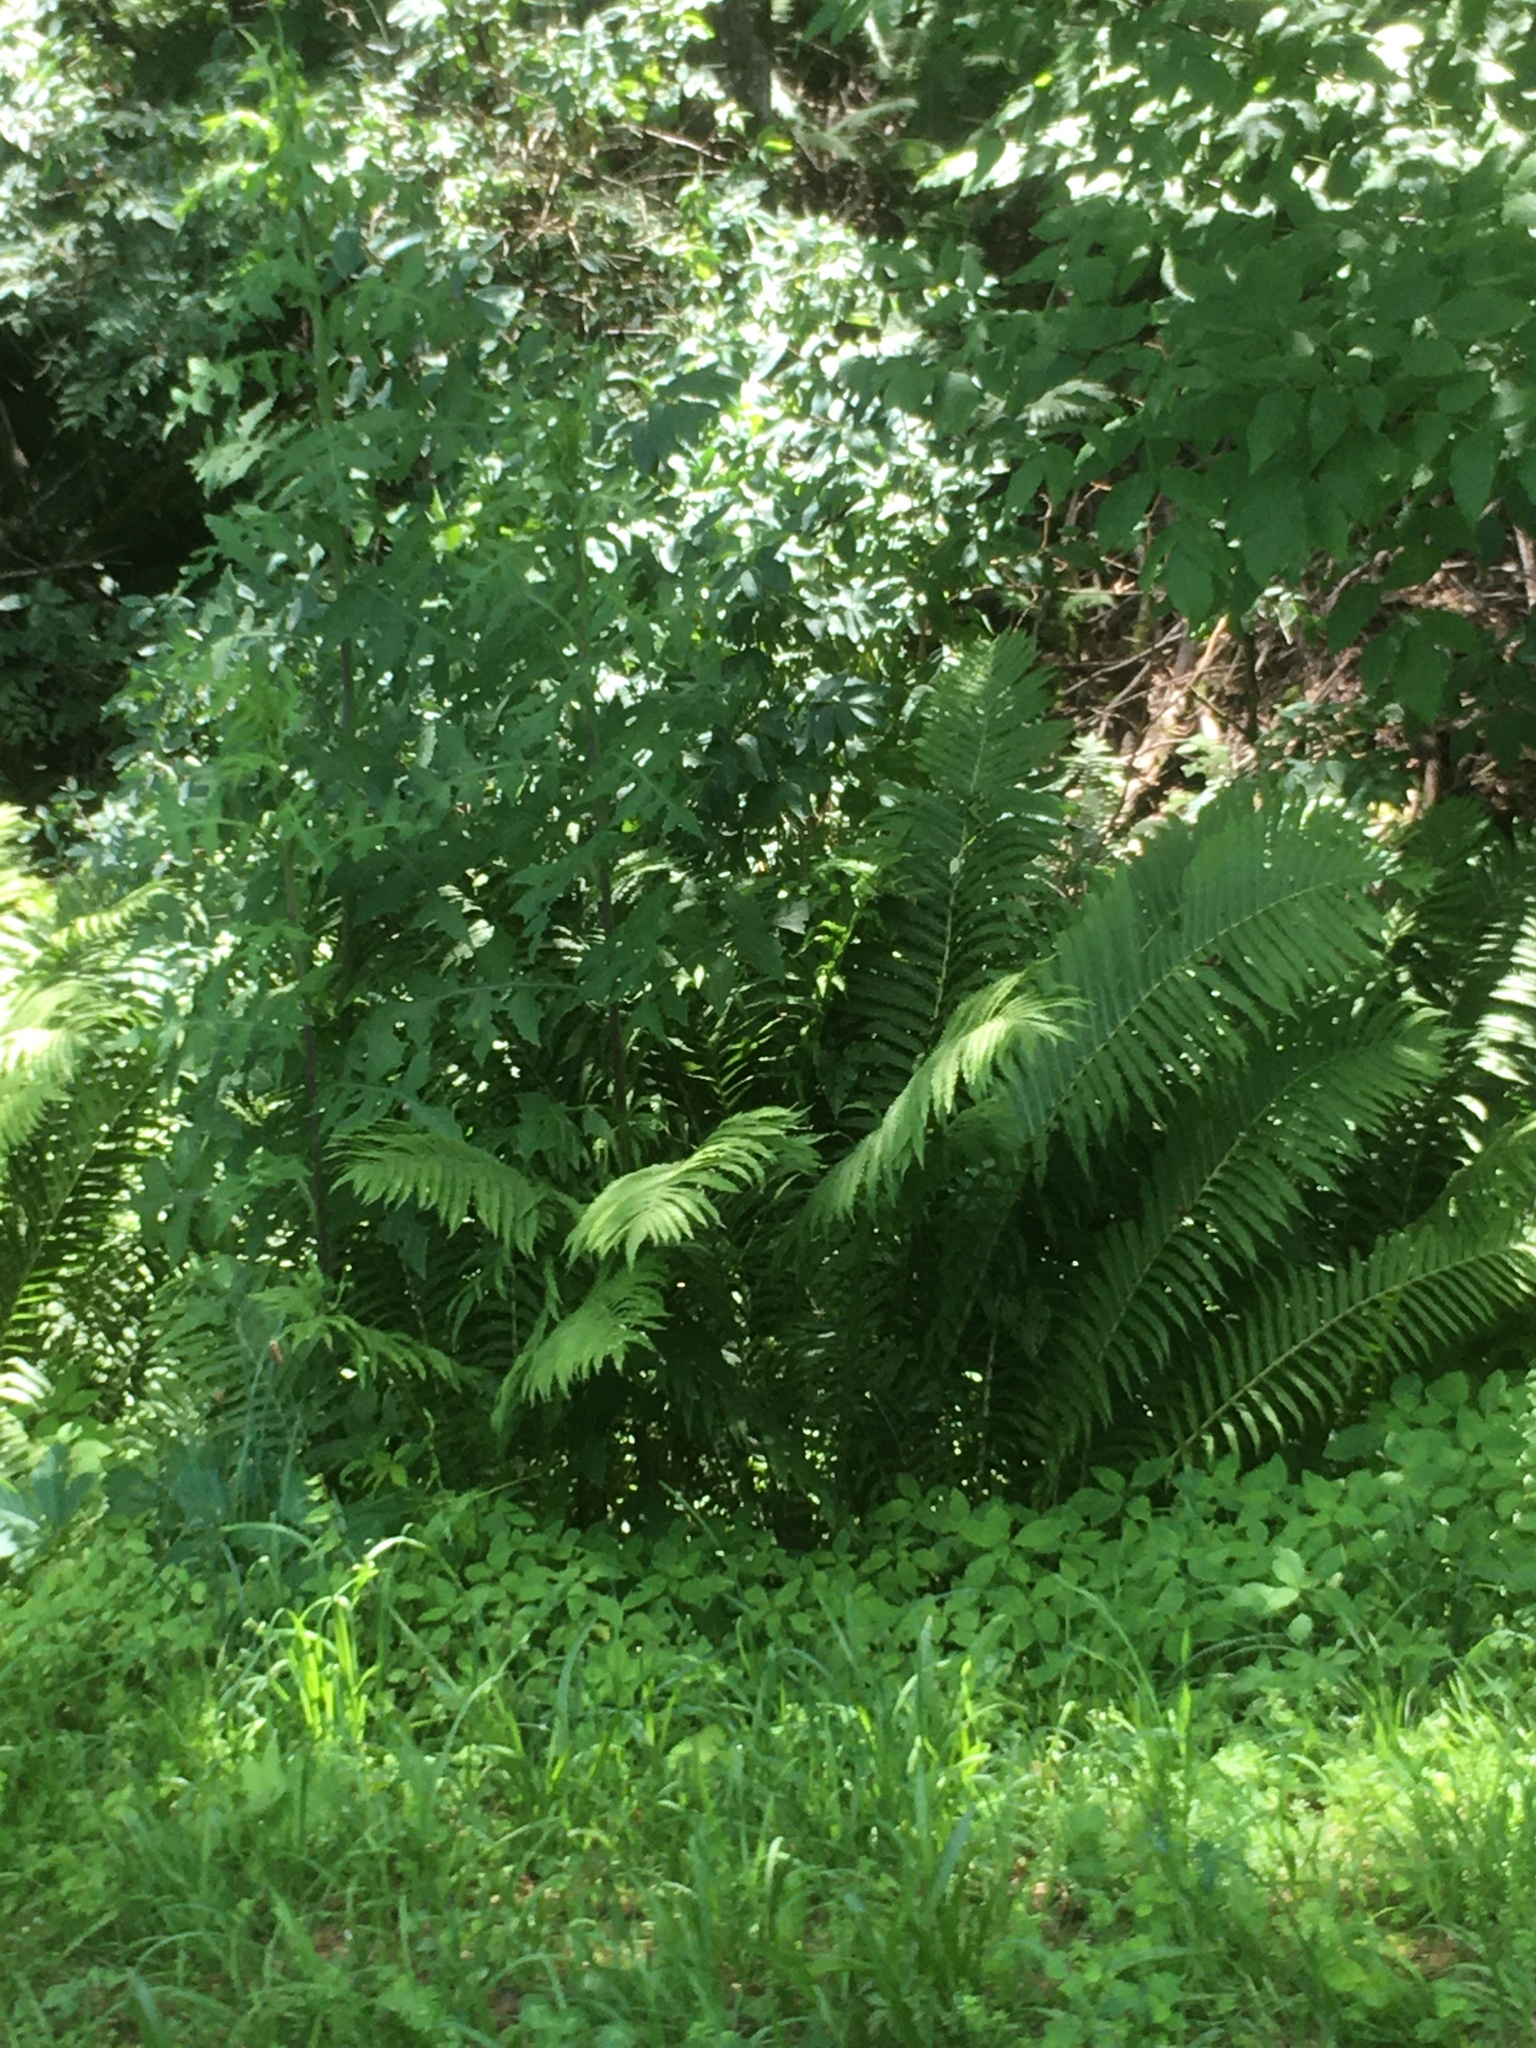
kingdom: Plantae
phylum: Tracheophyta
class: Polypodiopsida
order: Polypodiales
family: Onocleaceae
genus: Matteuccia
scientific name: Matteuccia struthiopteris
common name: Ostrich fern
